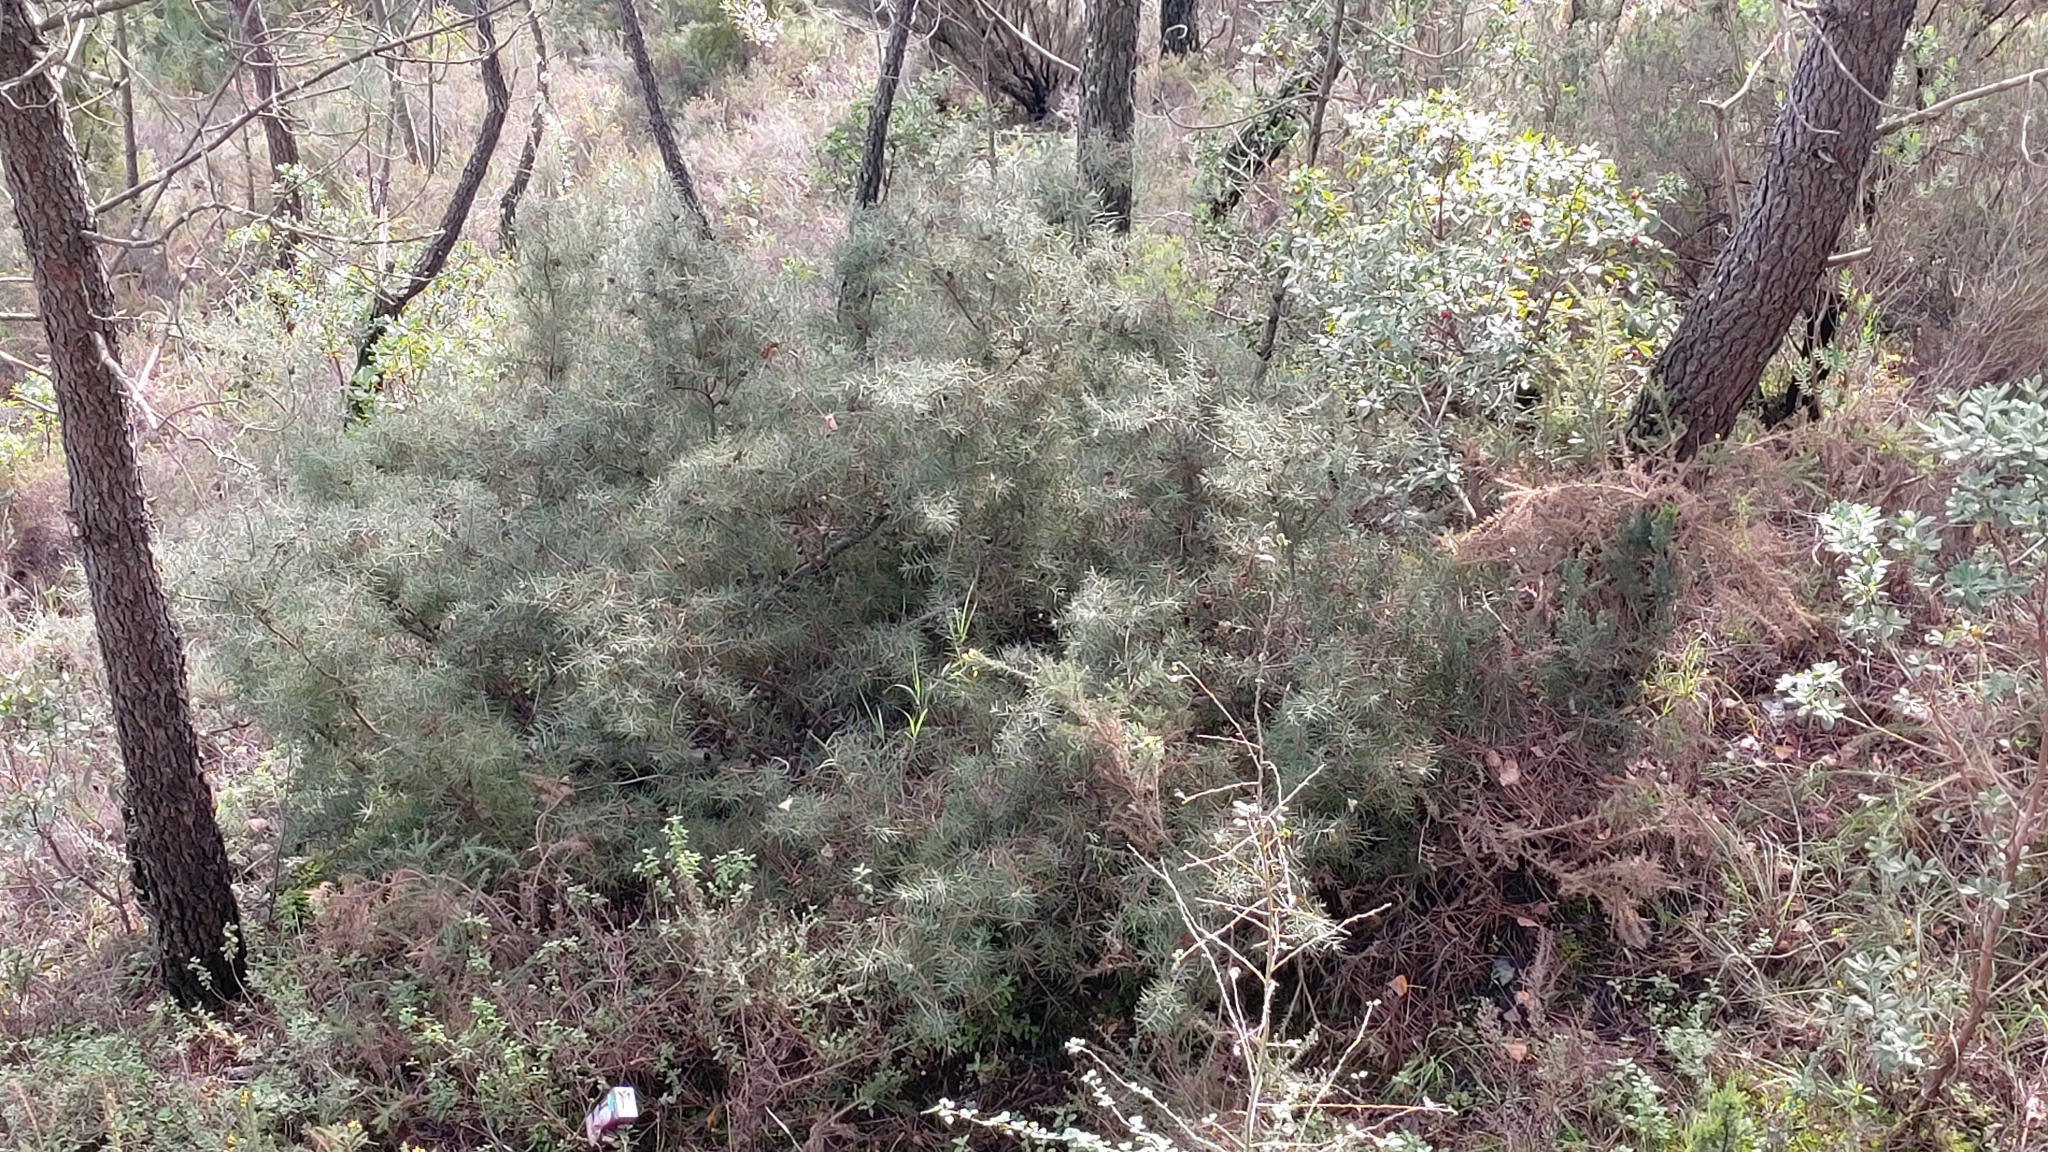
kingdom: Plantae
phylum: Tracheophyta
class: Magnoliopsida
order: Proteales
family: Proteaceae
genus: Hakea
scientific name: Hakea decurrens
